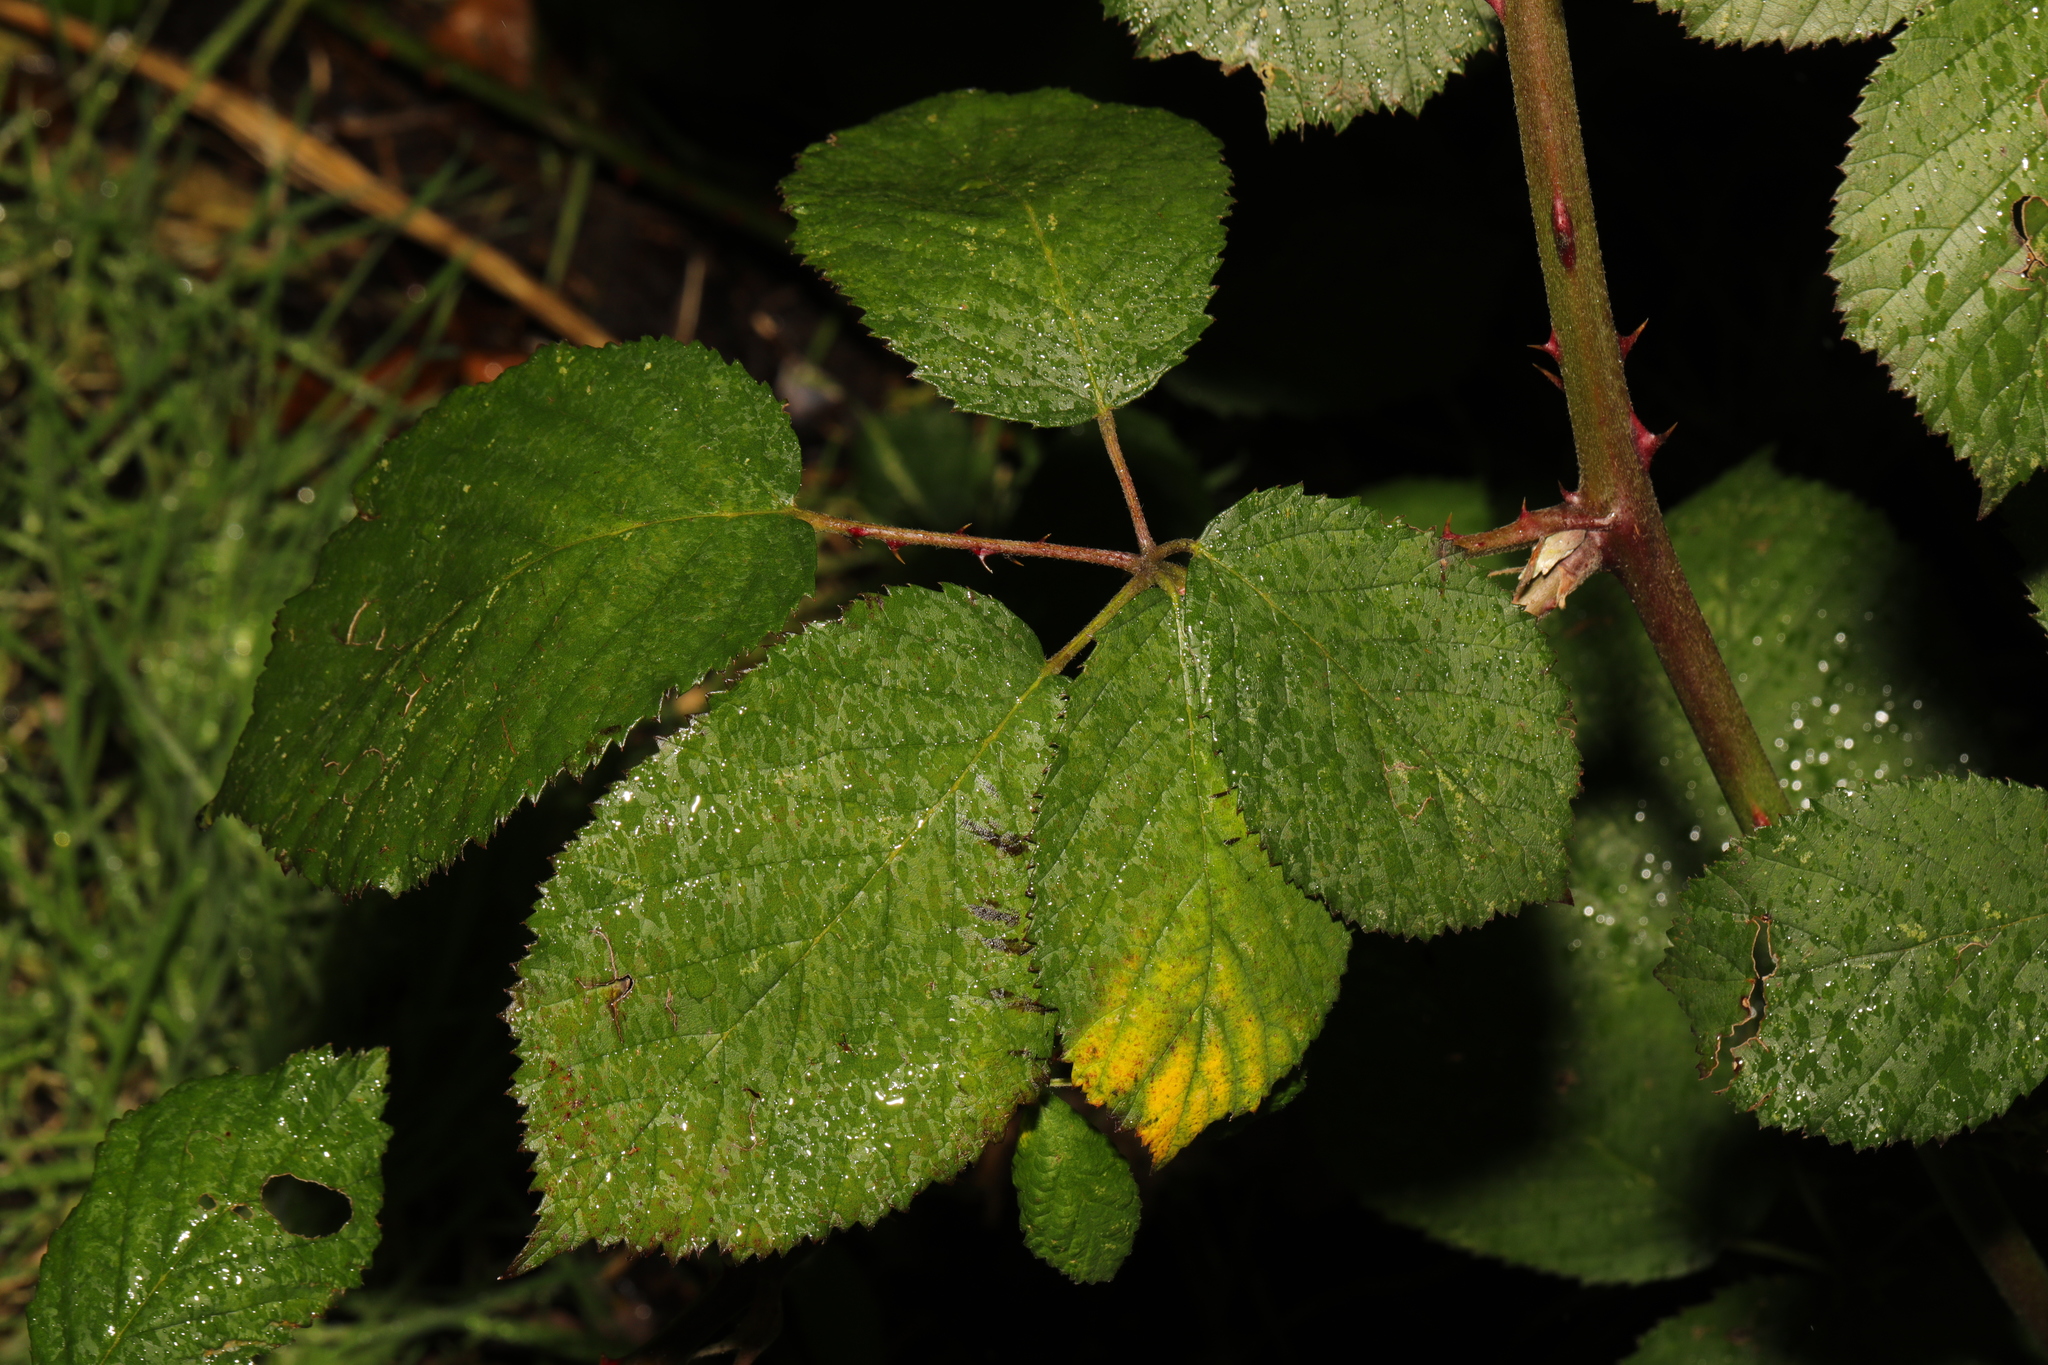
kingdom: Plantae
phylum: Tracheophyta
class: Magnoliopsida
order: Rosales
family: Rosaceae
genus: Rubus
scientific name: Rubus armeniacus
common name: Himalayan blackberry
